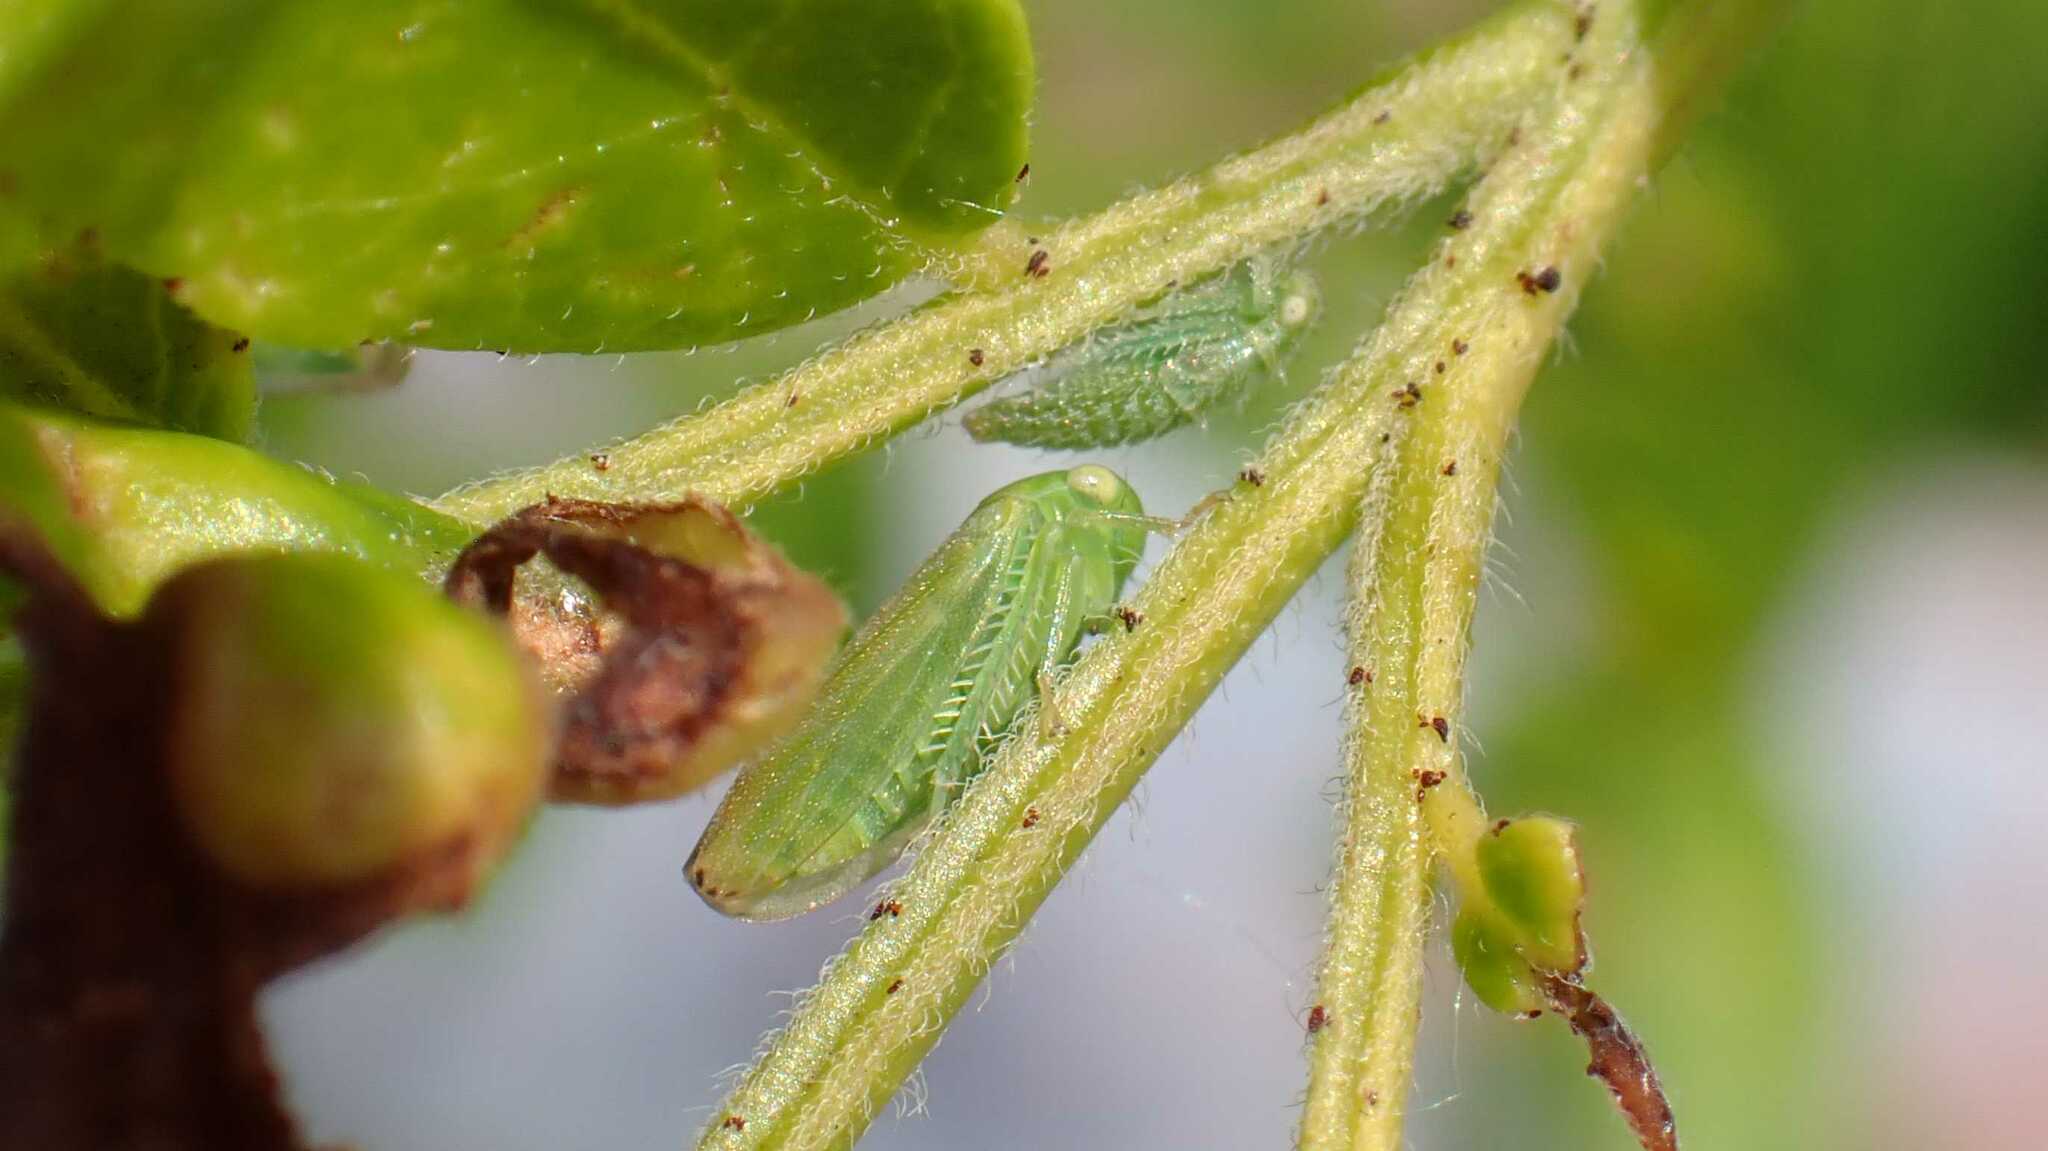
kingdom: Animalia
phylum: Arthropoda
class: Insecta
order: Hemiptera
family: Cicadellidae
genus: Stragania
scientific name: Stragania apicalis
